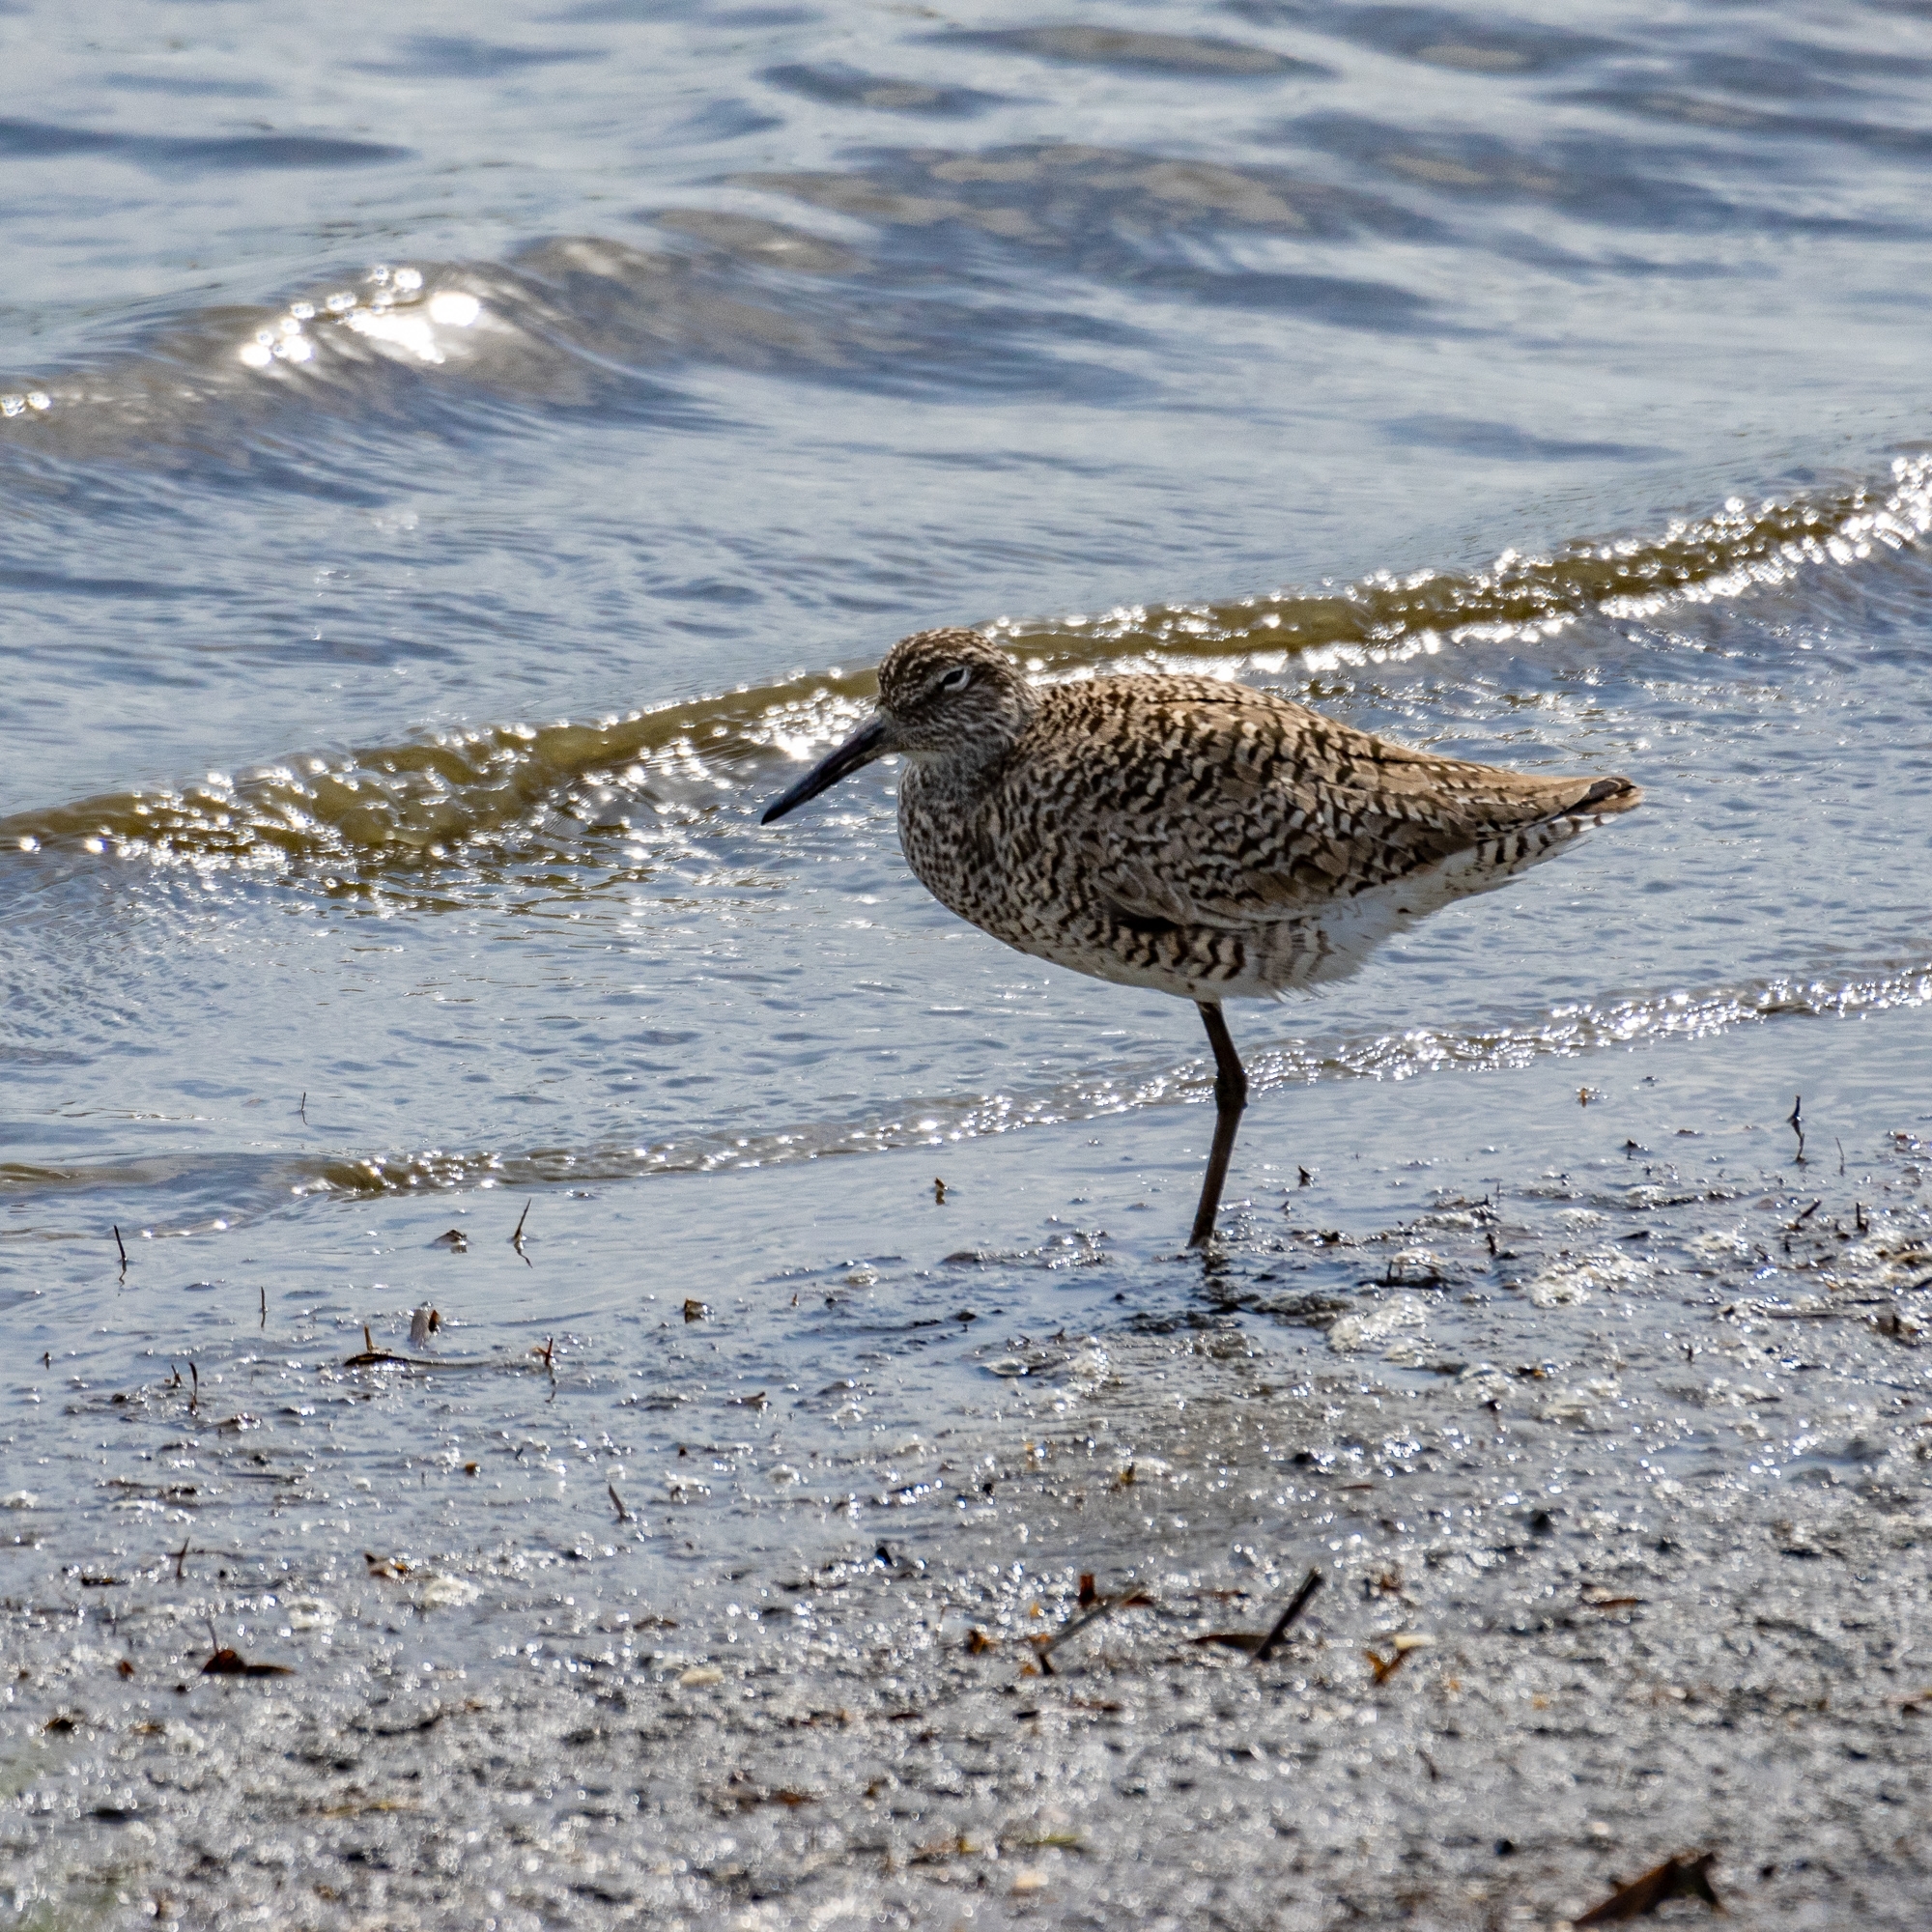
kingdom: Animalia
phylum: Chordata
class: Aves
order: Charadriiformes
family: Scolopacidae
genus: Tringa
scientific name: Tringa semipalmata
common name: Willet
